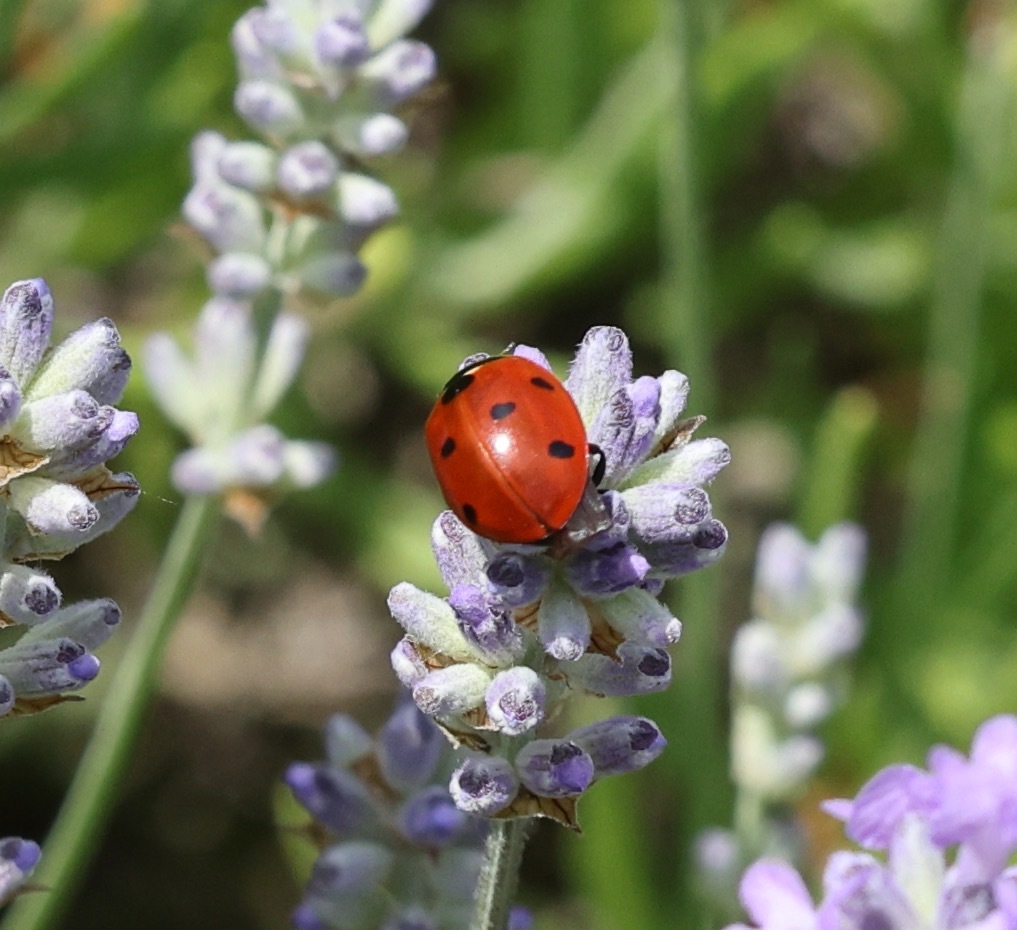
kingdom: Animalia
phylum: Arthropoda
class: Insecta
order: Coleoptera
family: Coccinellidae
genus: Coccinella
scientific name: Coccinella septempunctata
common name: Sevenspotted lady beetle
